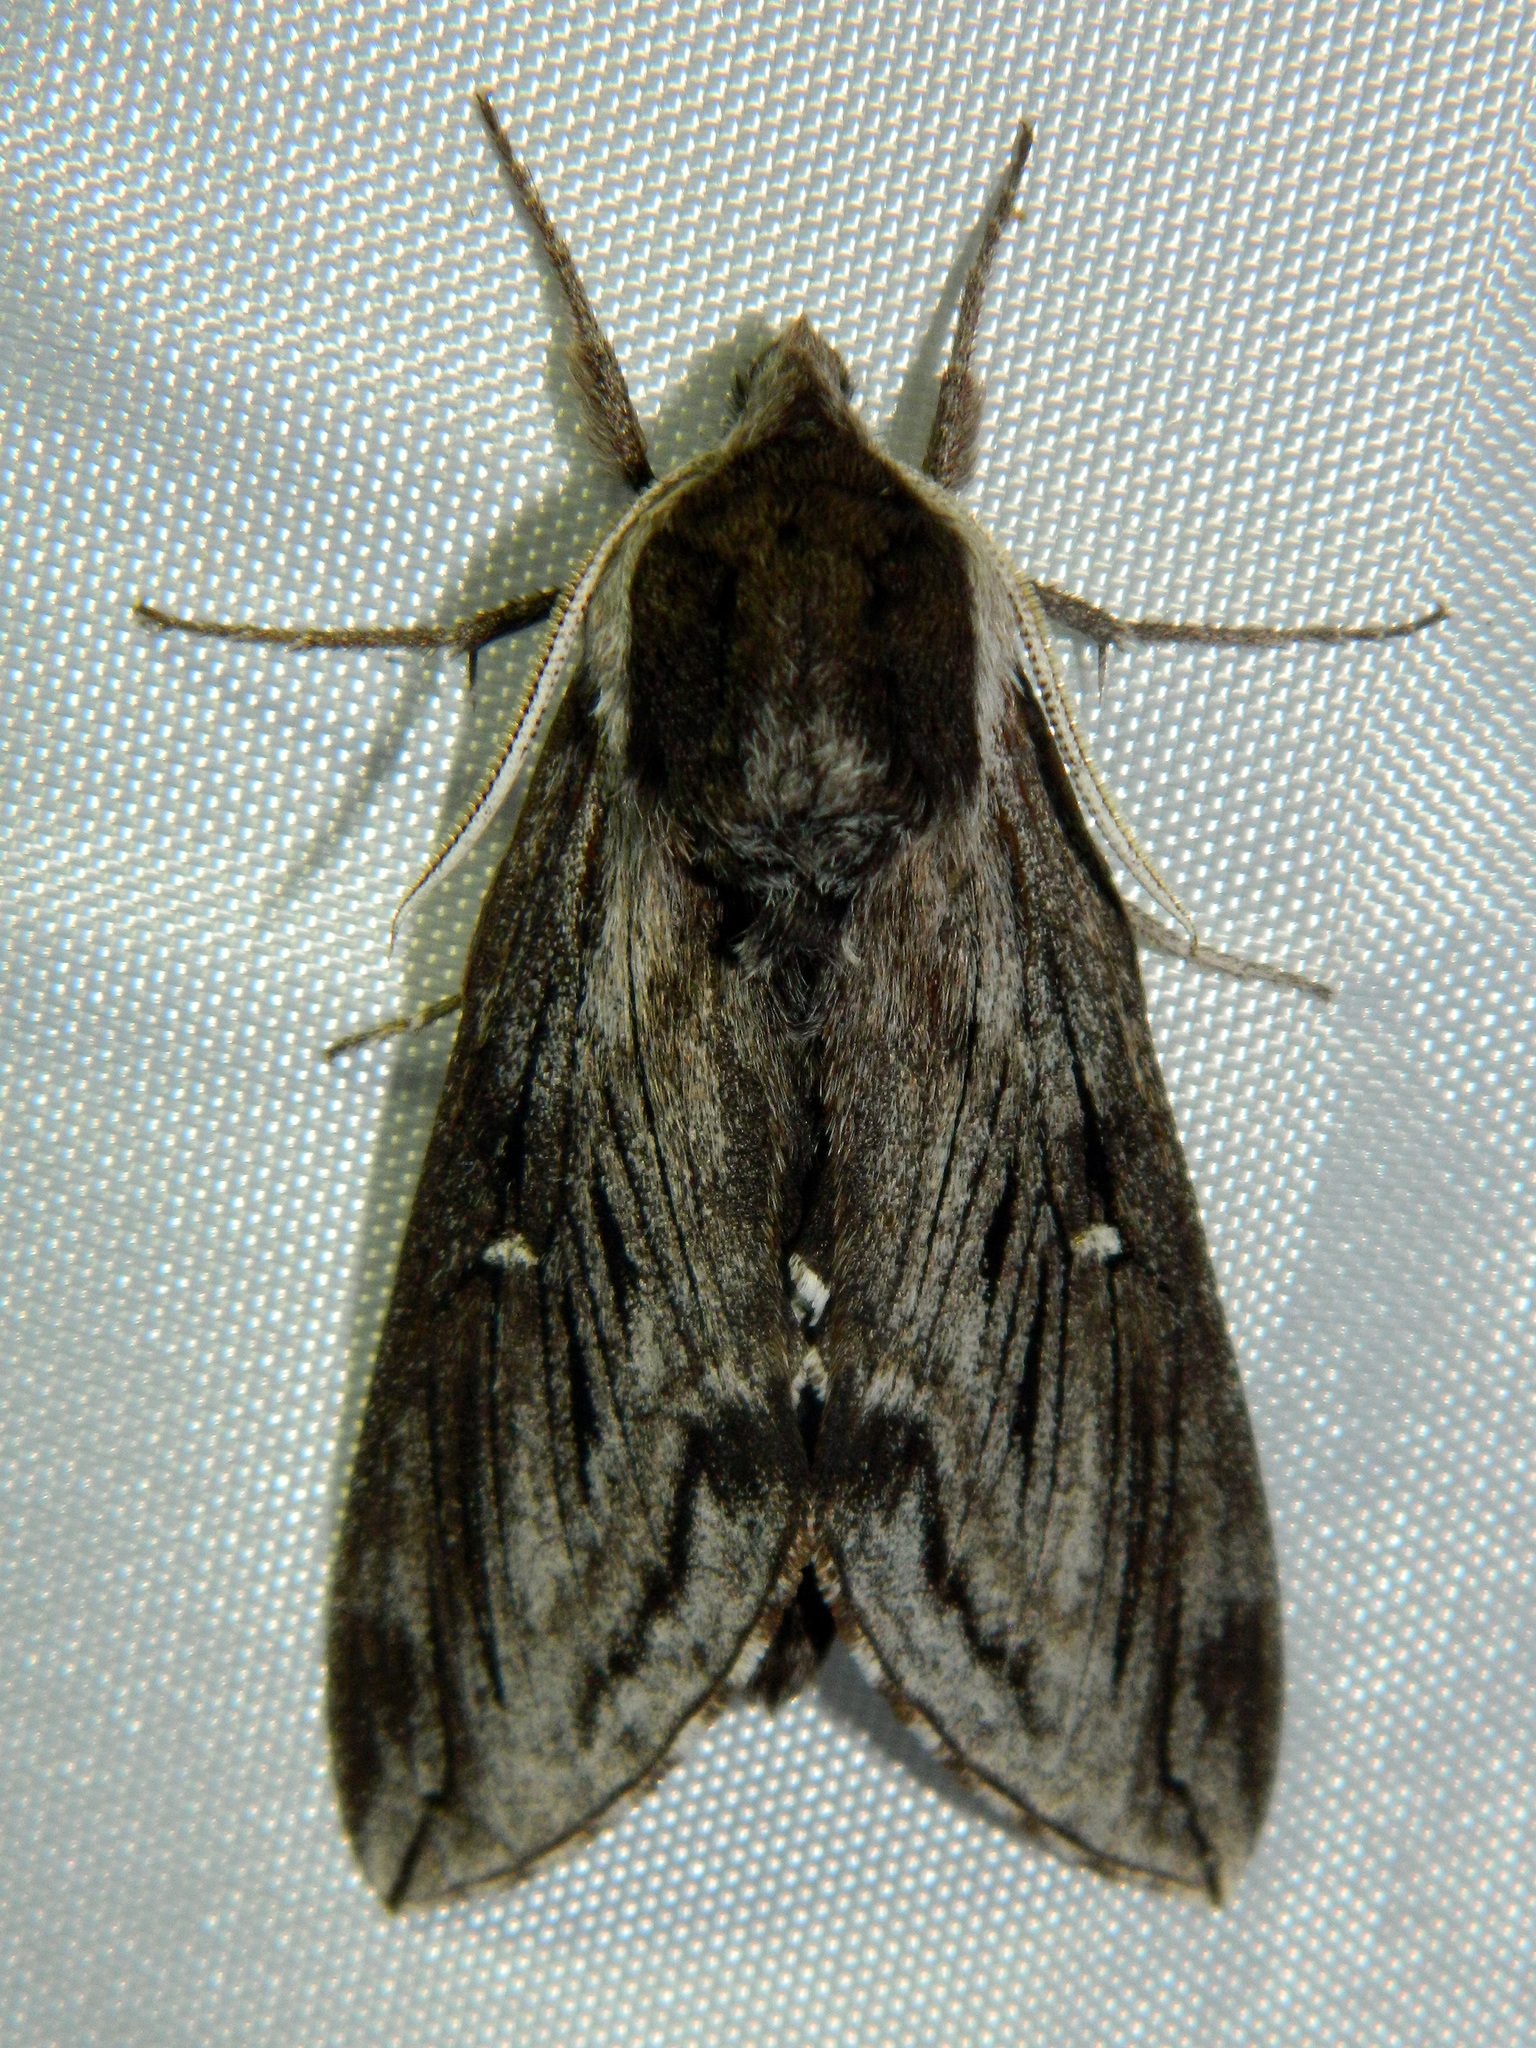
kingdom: Animalia
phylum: Arthropoda
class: Insecta
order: Lepidoptera
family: Sphingidae
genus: Sphinx
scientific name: Sphinx poecila
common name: Northern apple sphinx
